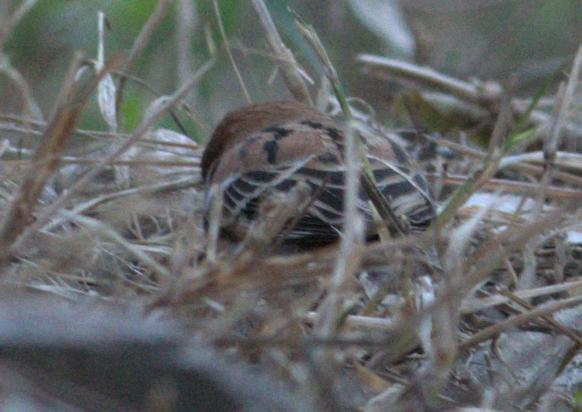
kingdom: Animalia
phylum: Chordata
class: Aves
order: Passeriformes
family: Passeridae
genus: Passer
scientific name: Passer cinnamomeus
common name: Russet sparrow
